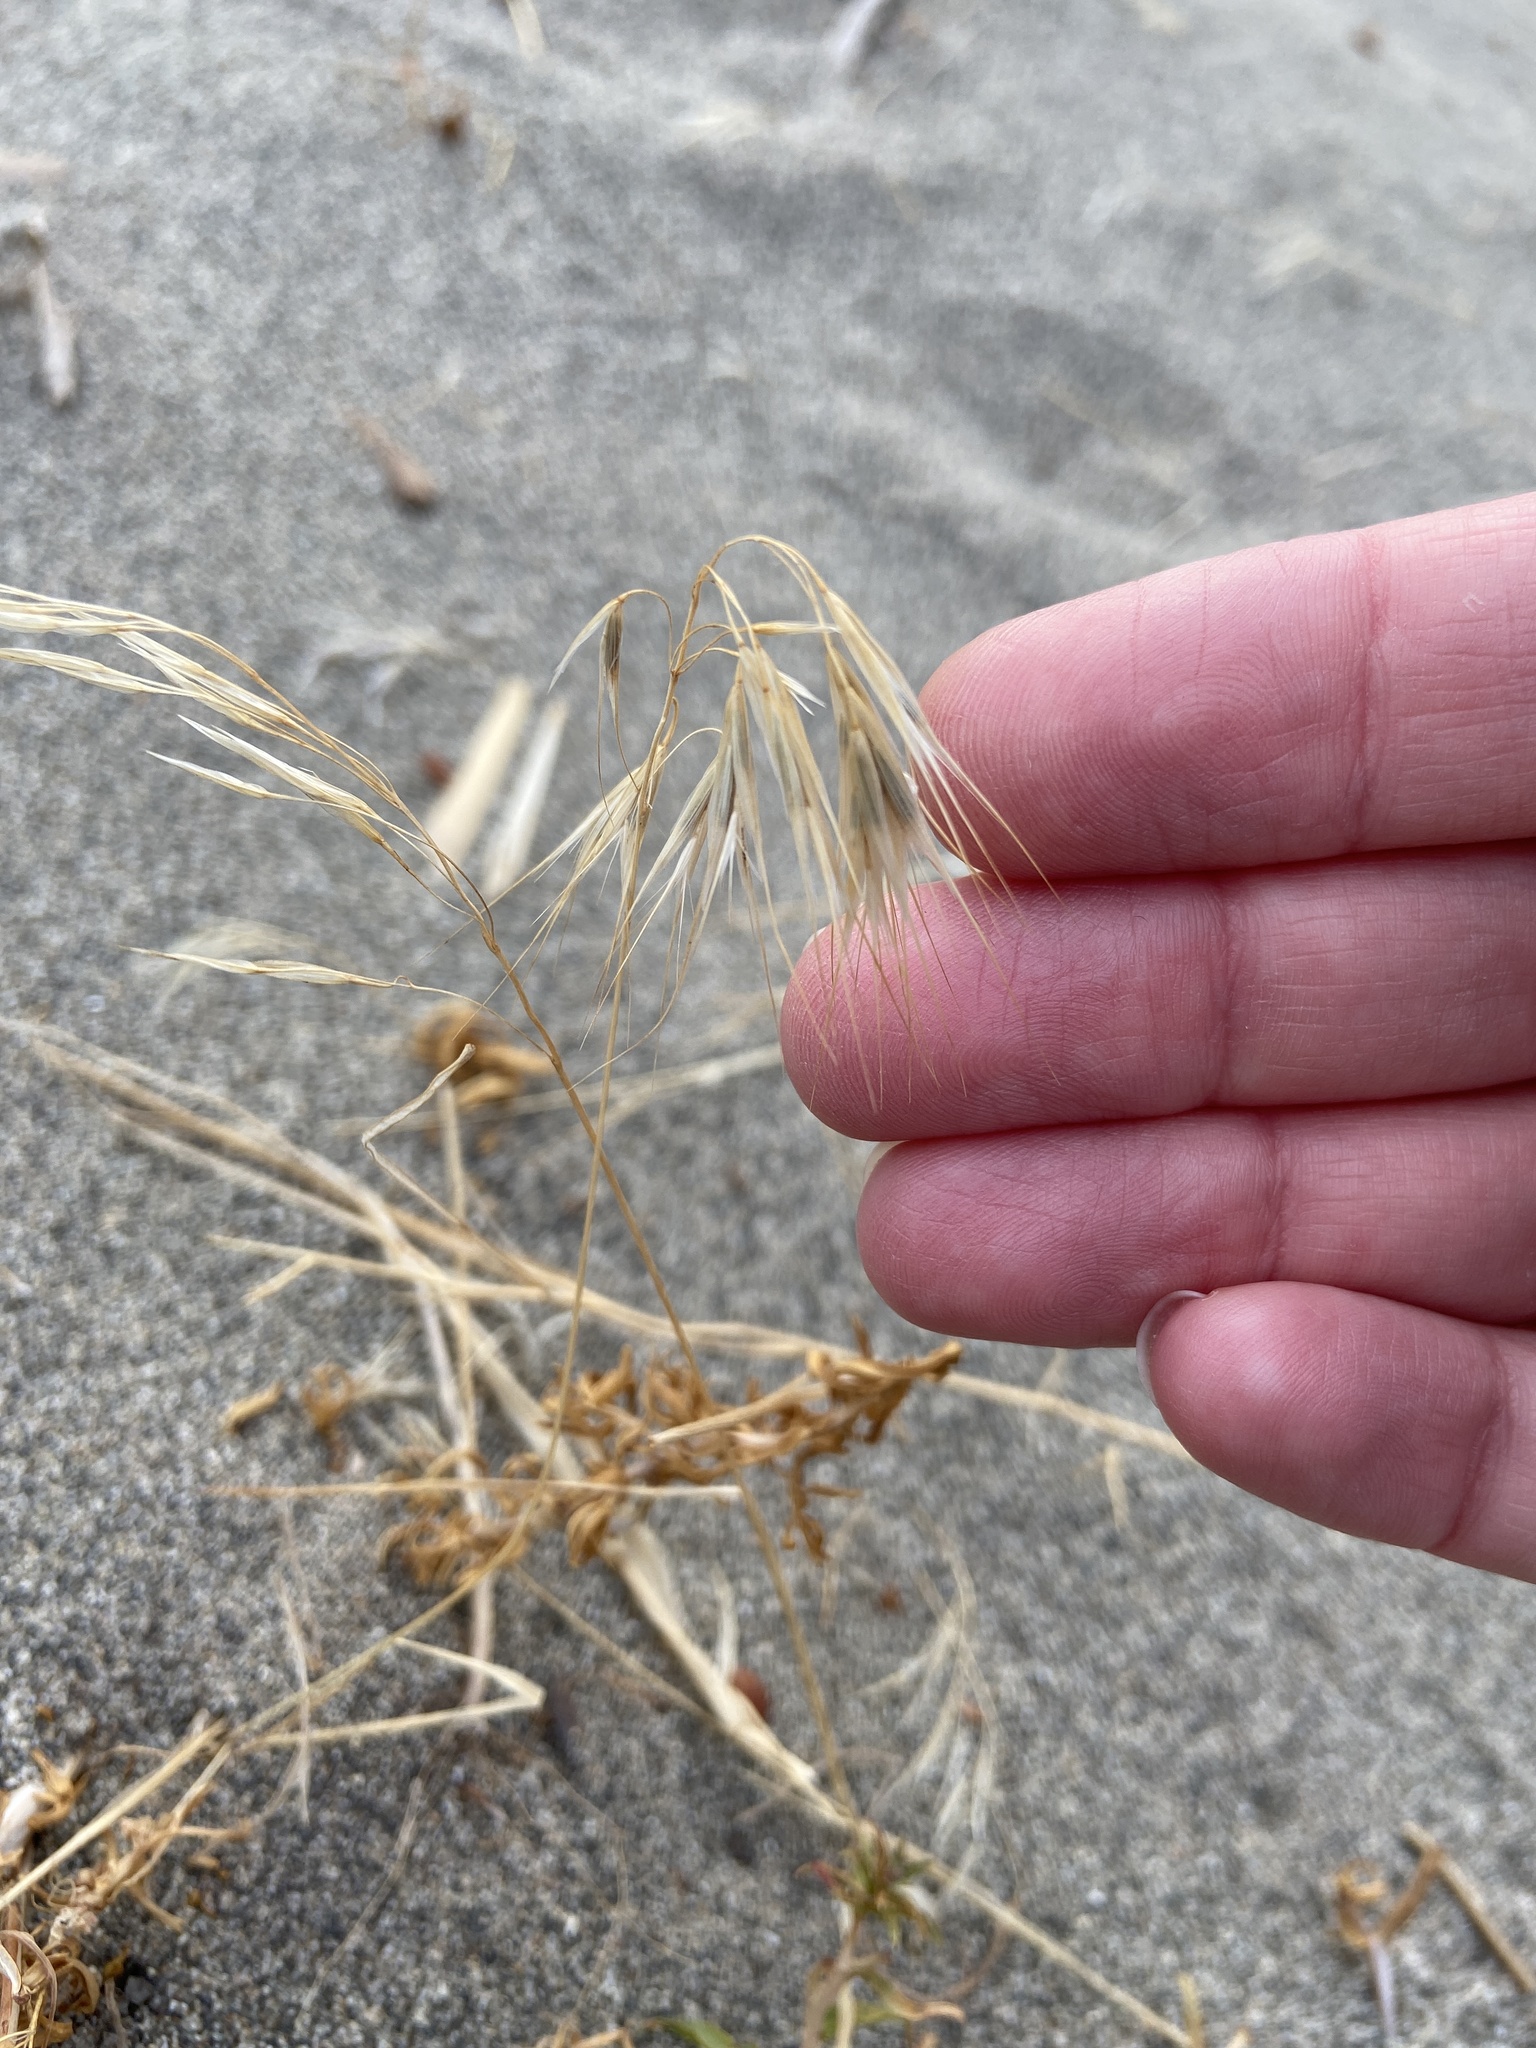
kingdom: Plantae
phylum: Tracheophyta
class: Liliopsida
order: Poales
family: Poaceae
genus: Bromus
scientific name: Bromus tectorum
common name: Cheatgrass
